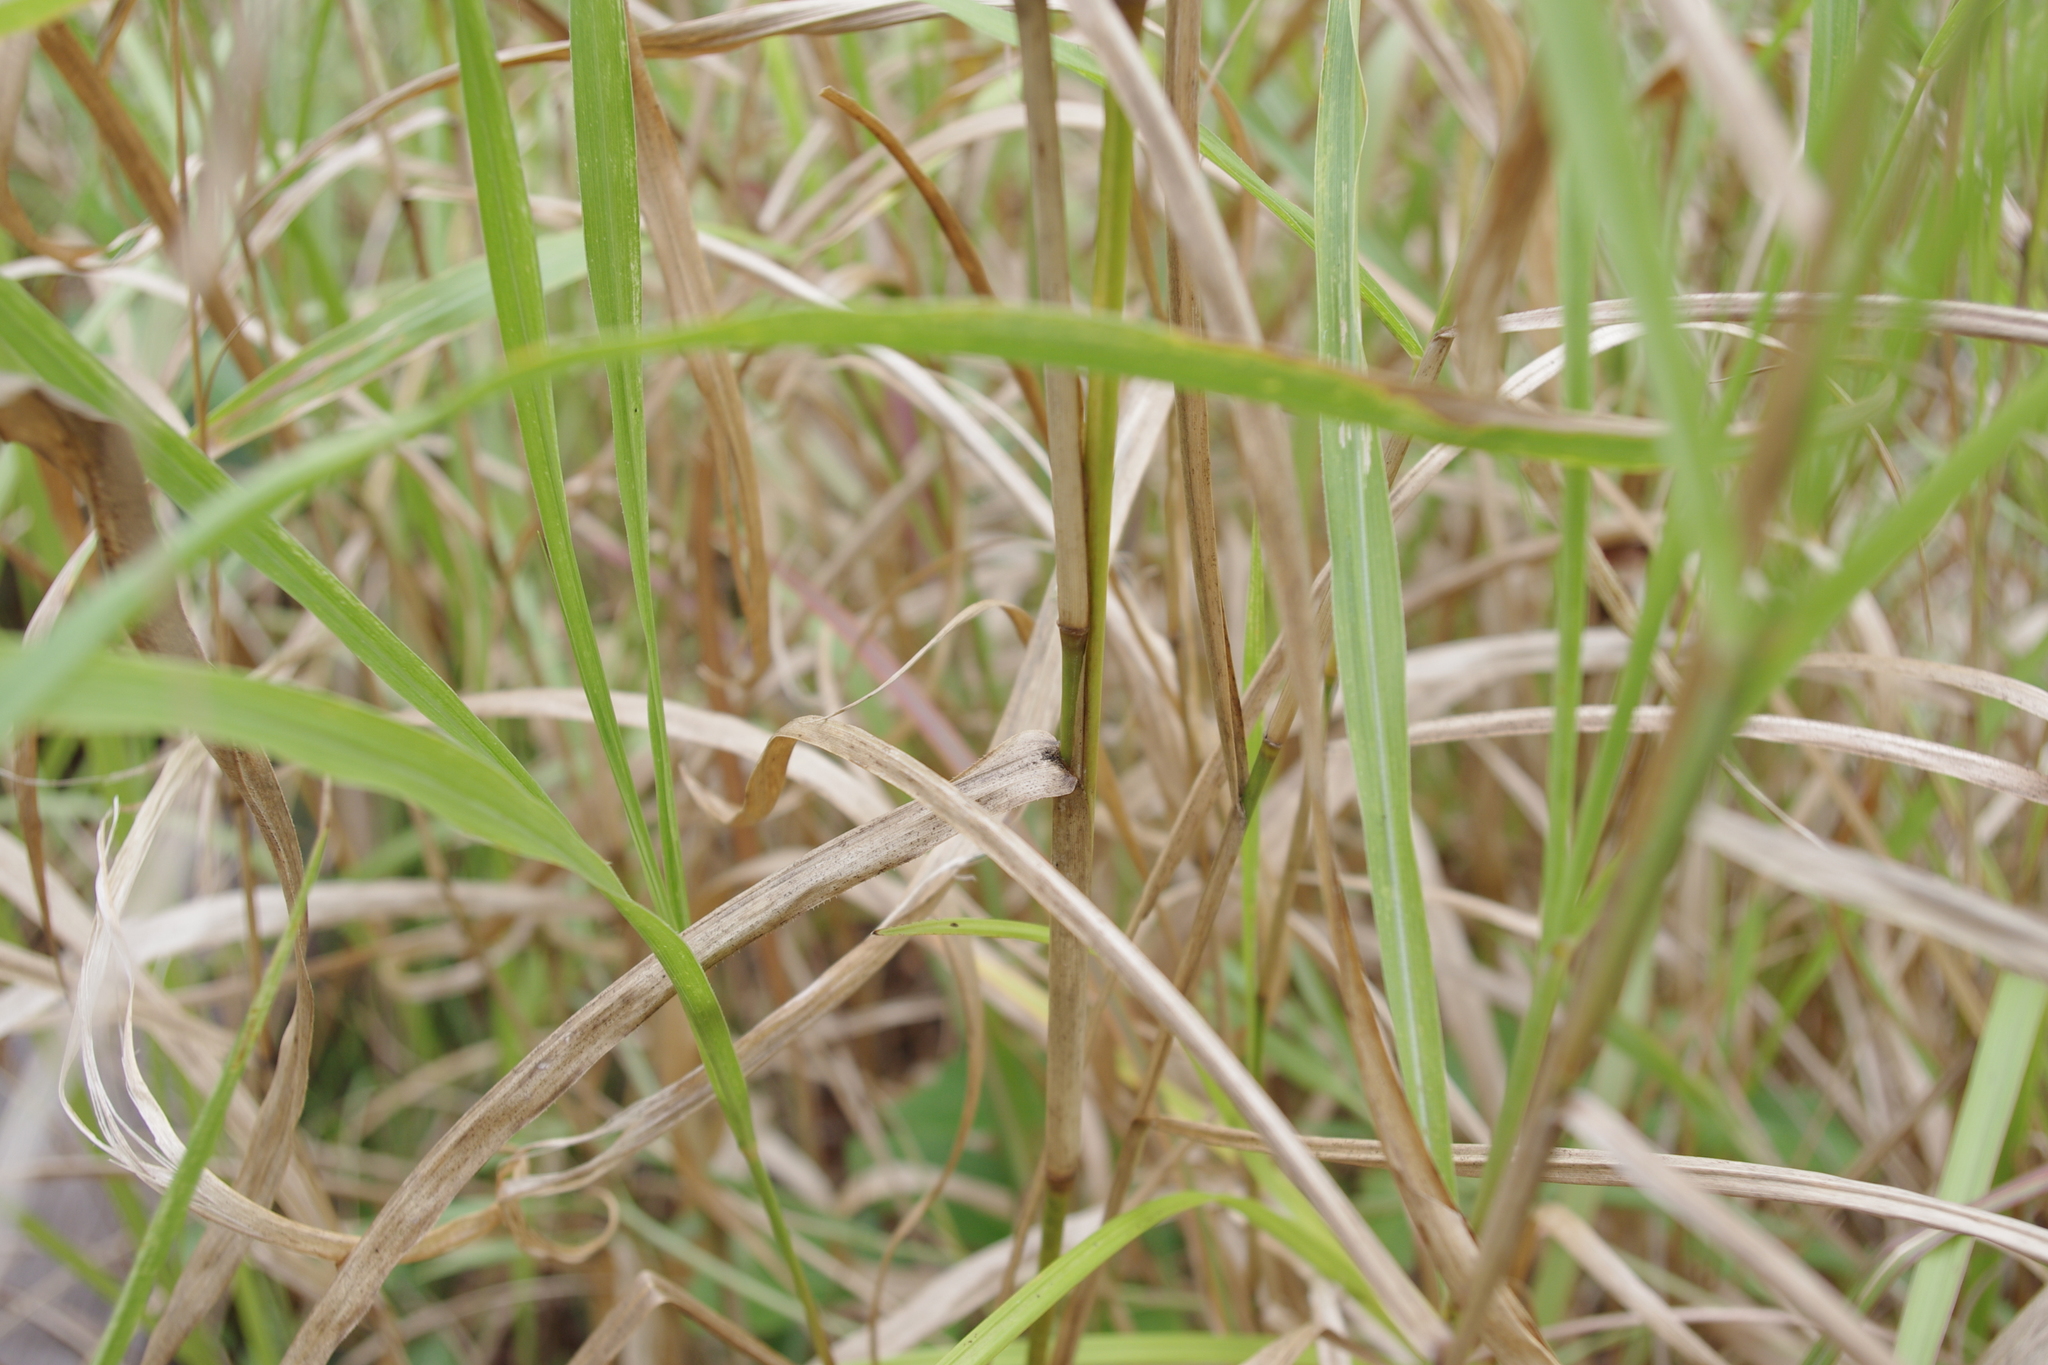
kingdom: Plantae
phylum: Tracheophyta
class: Liliopsida
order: Poales
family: Poaceae
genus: Polytoca
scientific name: Polytoca cyathopoda
